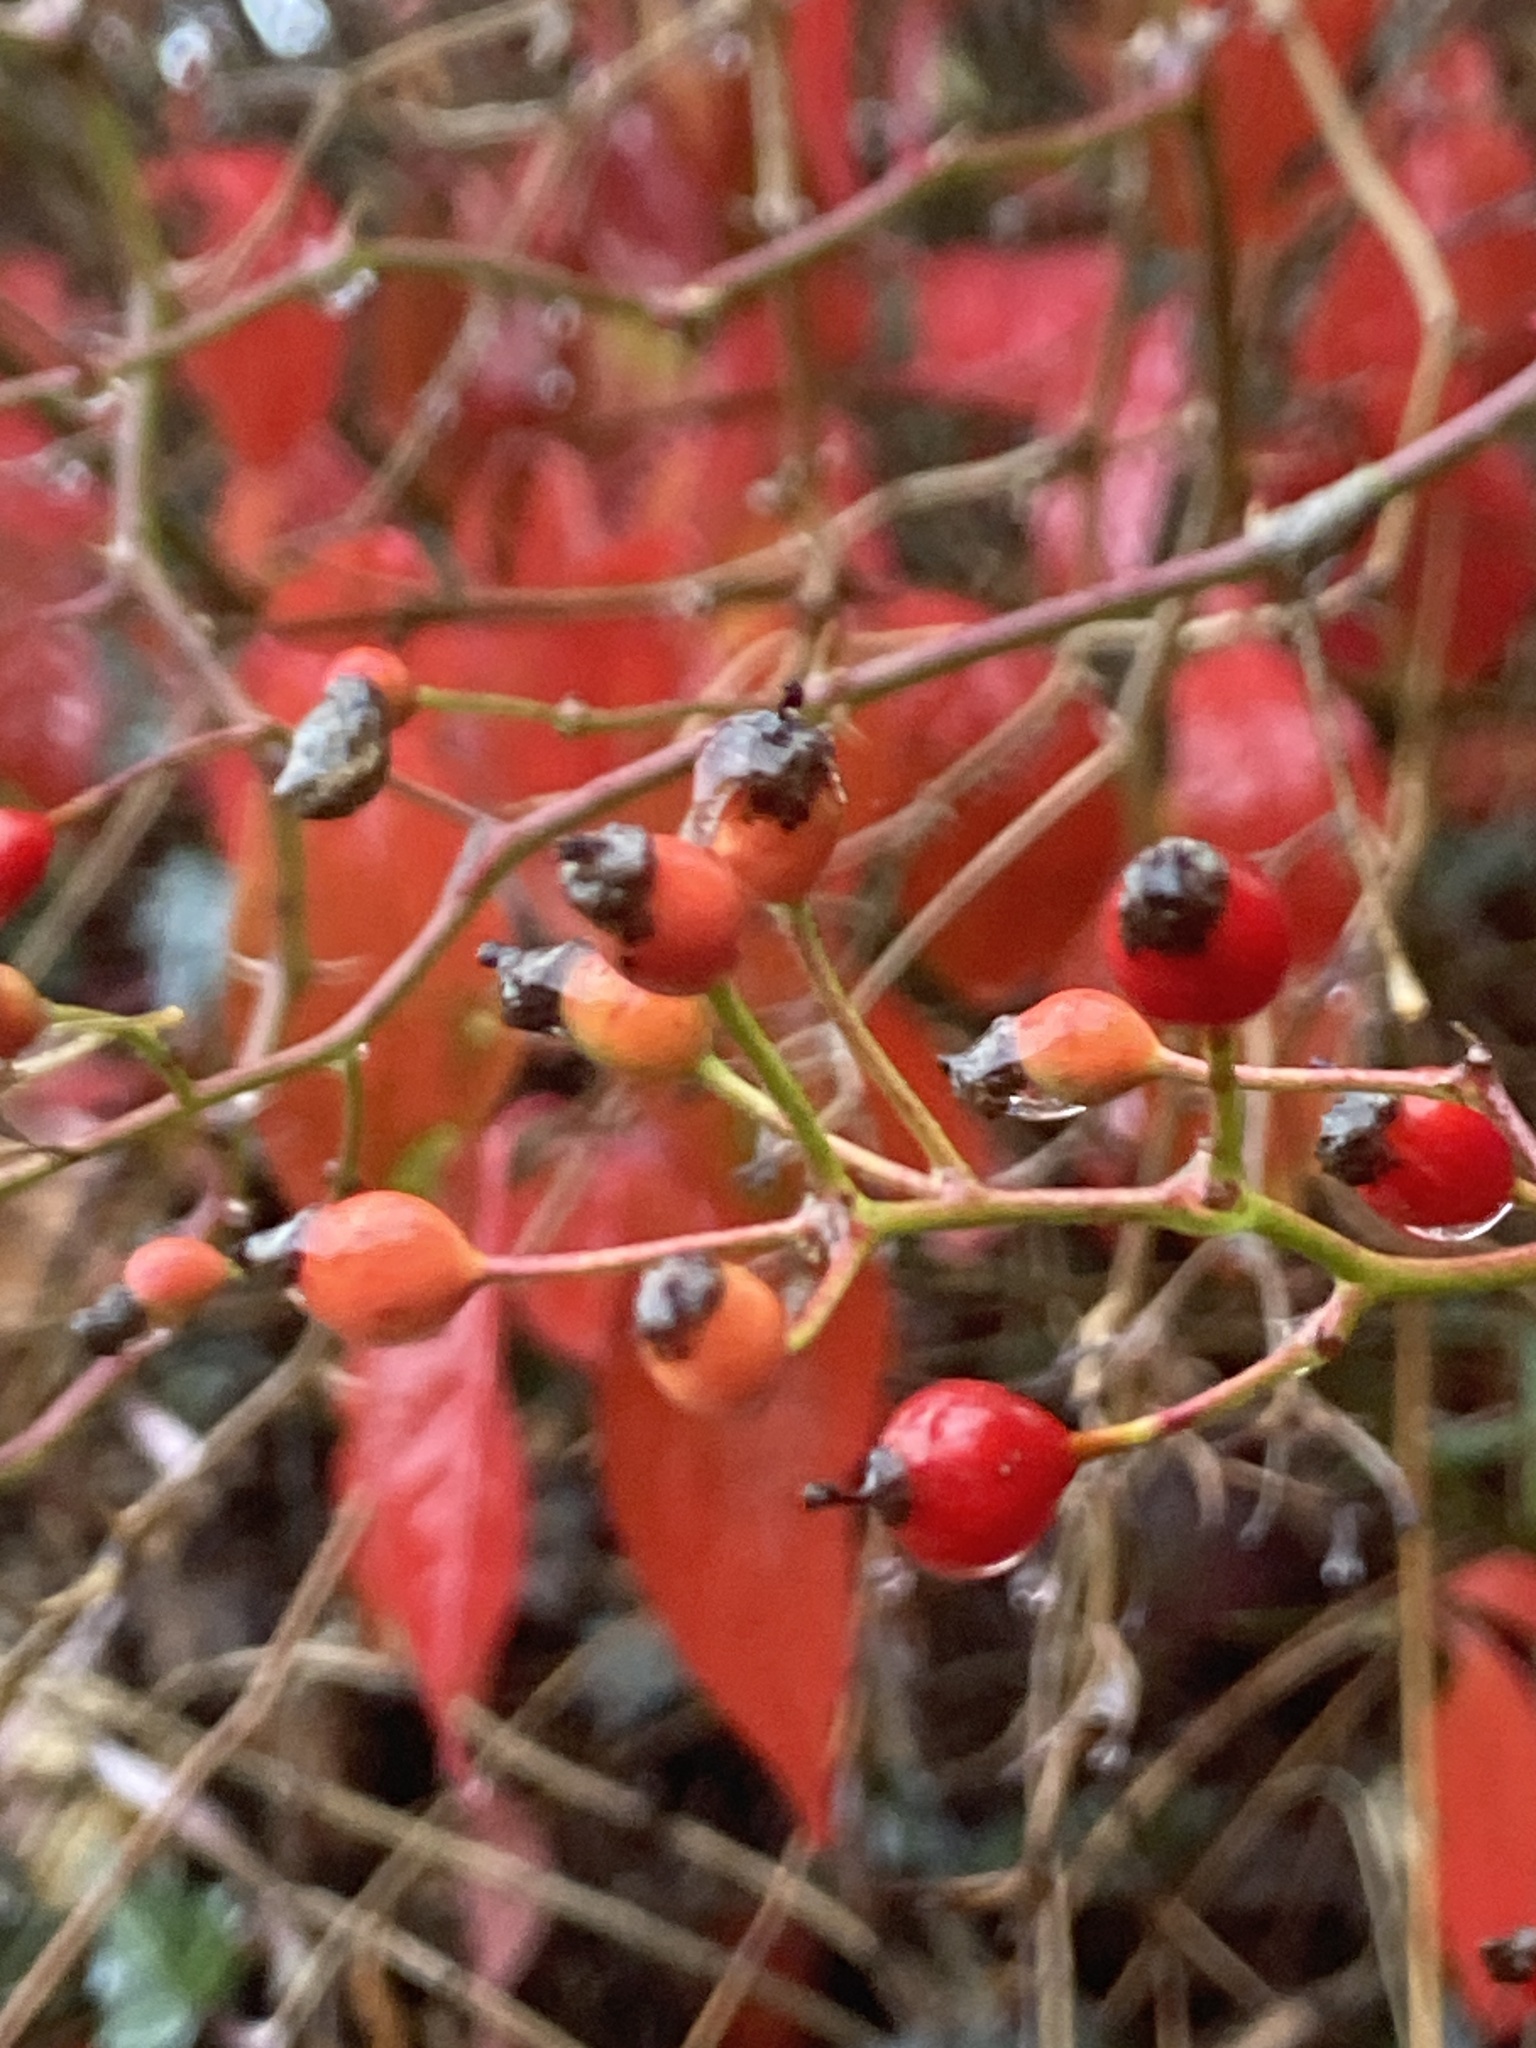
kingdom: Plantae
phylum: Tracheophyta
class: Magnoliopsida
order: Rosales
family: Rosaceae
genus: Rosa
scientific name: Rosa multiflora
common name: Multiflora rose
